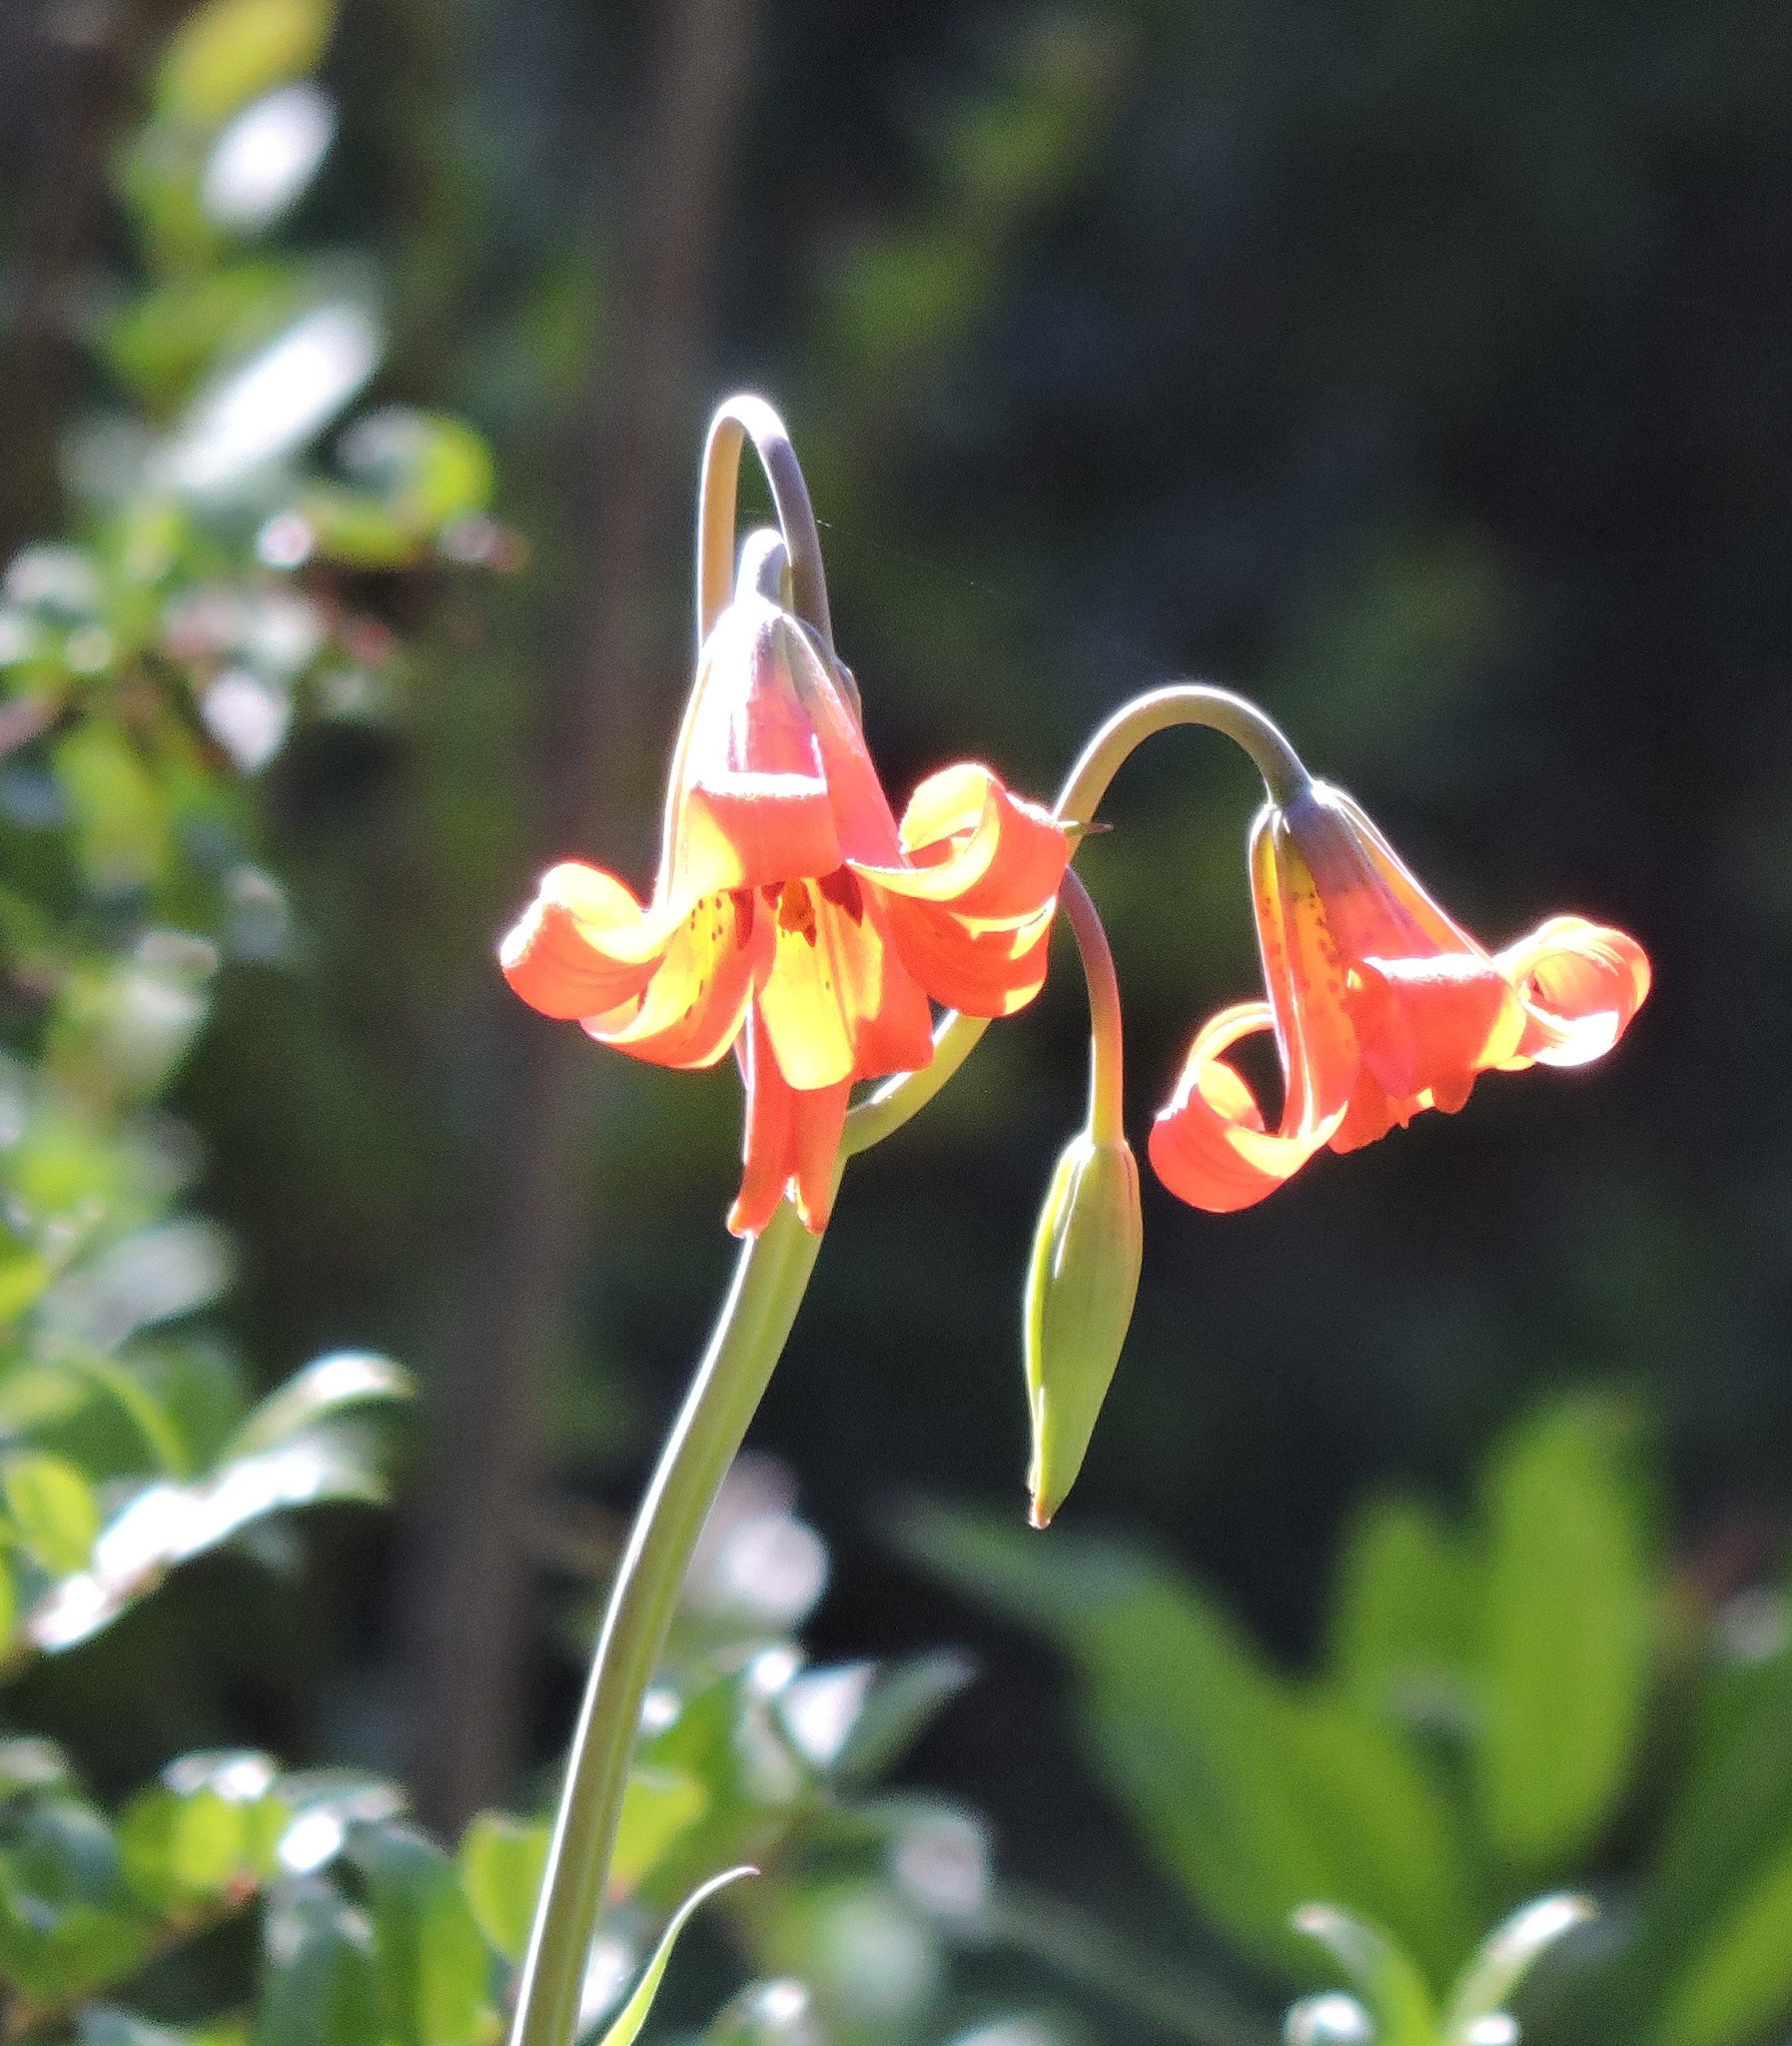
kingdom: Plantae
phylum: Tracheophyta
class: Liliopsida
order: Liliales
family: Liliaceae
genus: Lilium
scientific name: Lilium maritimum
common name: Coastal lily
